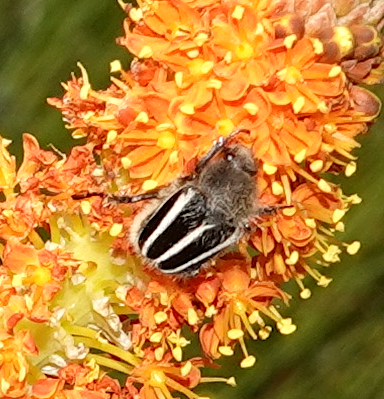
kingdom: Animalia
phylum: Arthropoda
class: Insecta
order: Coleoptera
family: Scarabaeidae
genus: Clania
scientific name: Clania macgregori
